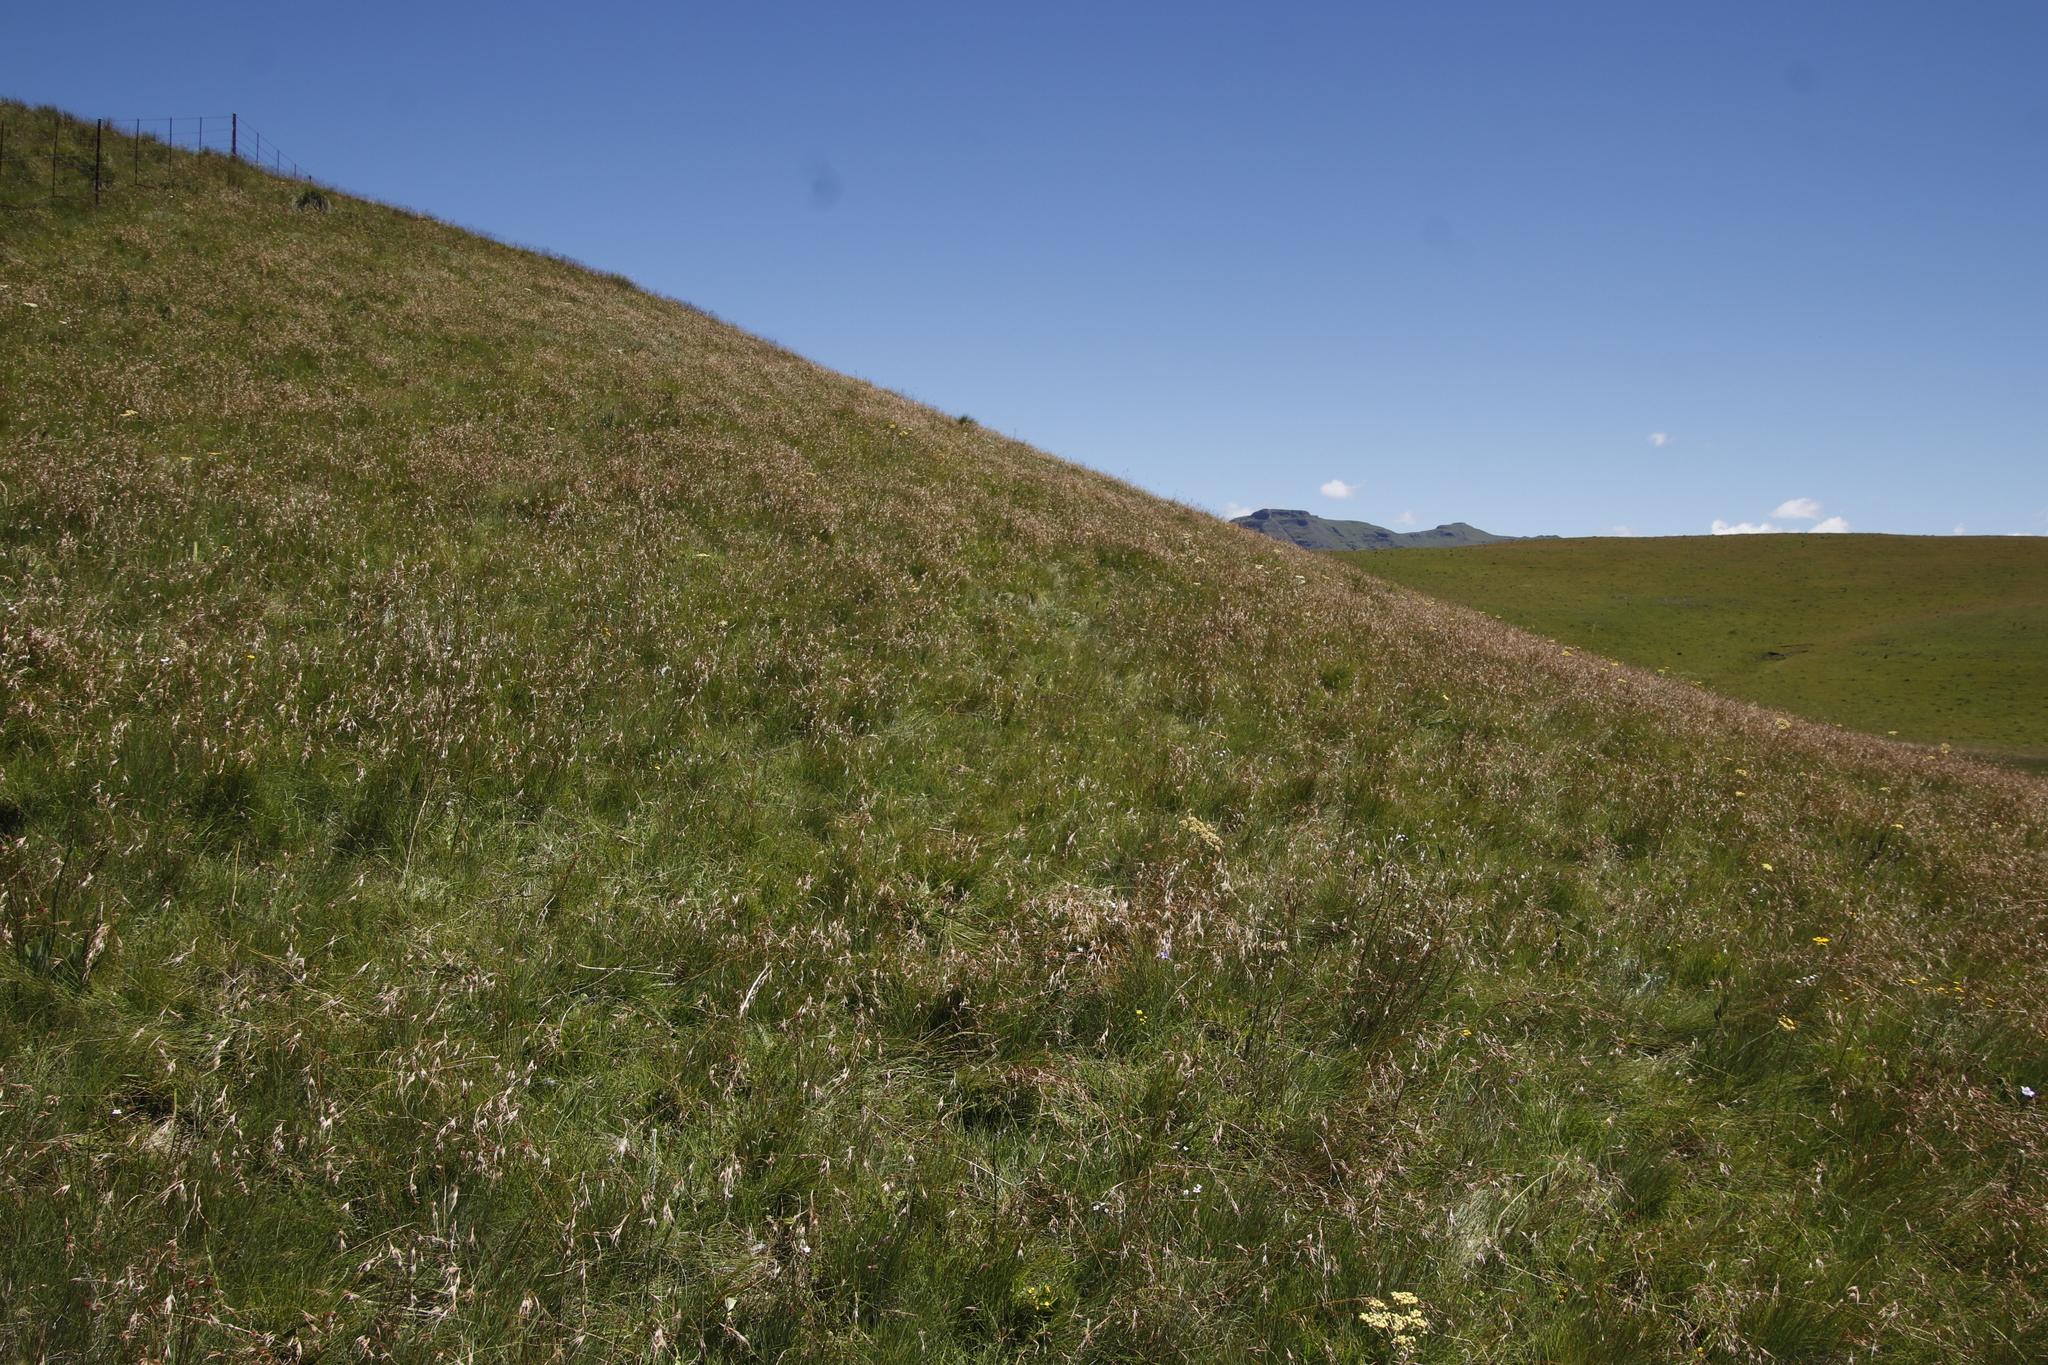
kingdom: Plantae
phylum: Tracheophyta
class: Liliopsida
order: Poales
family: Poaceae
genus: Themeda
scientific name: Themeda triandra
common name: Kangaroo grass
